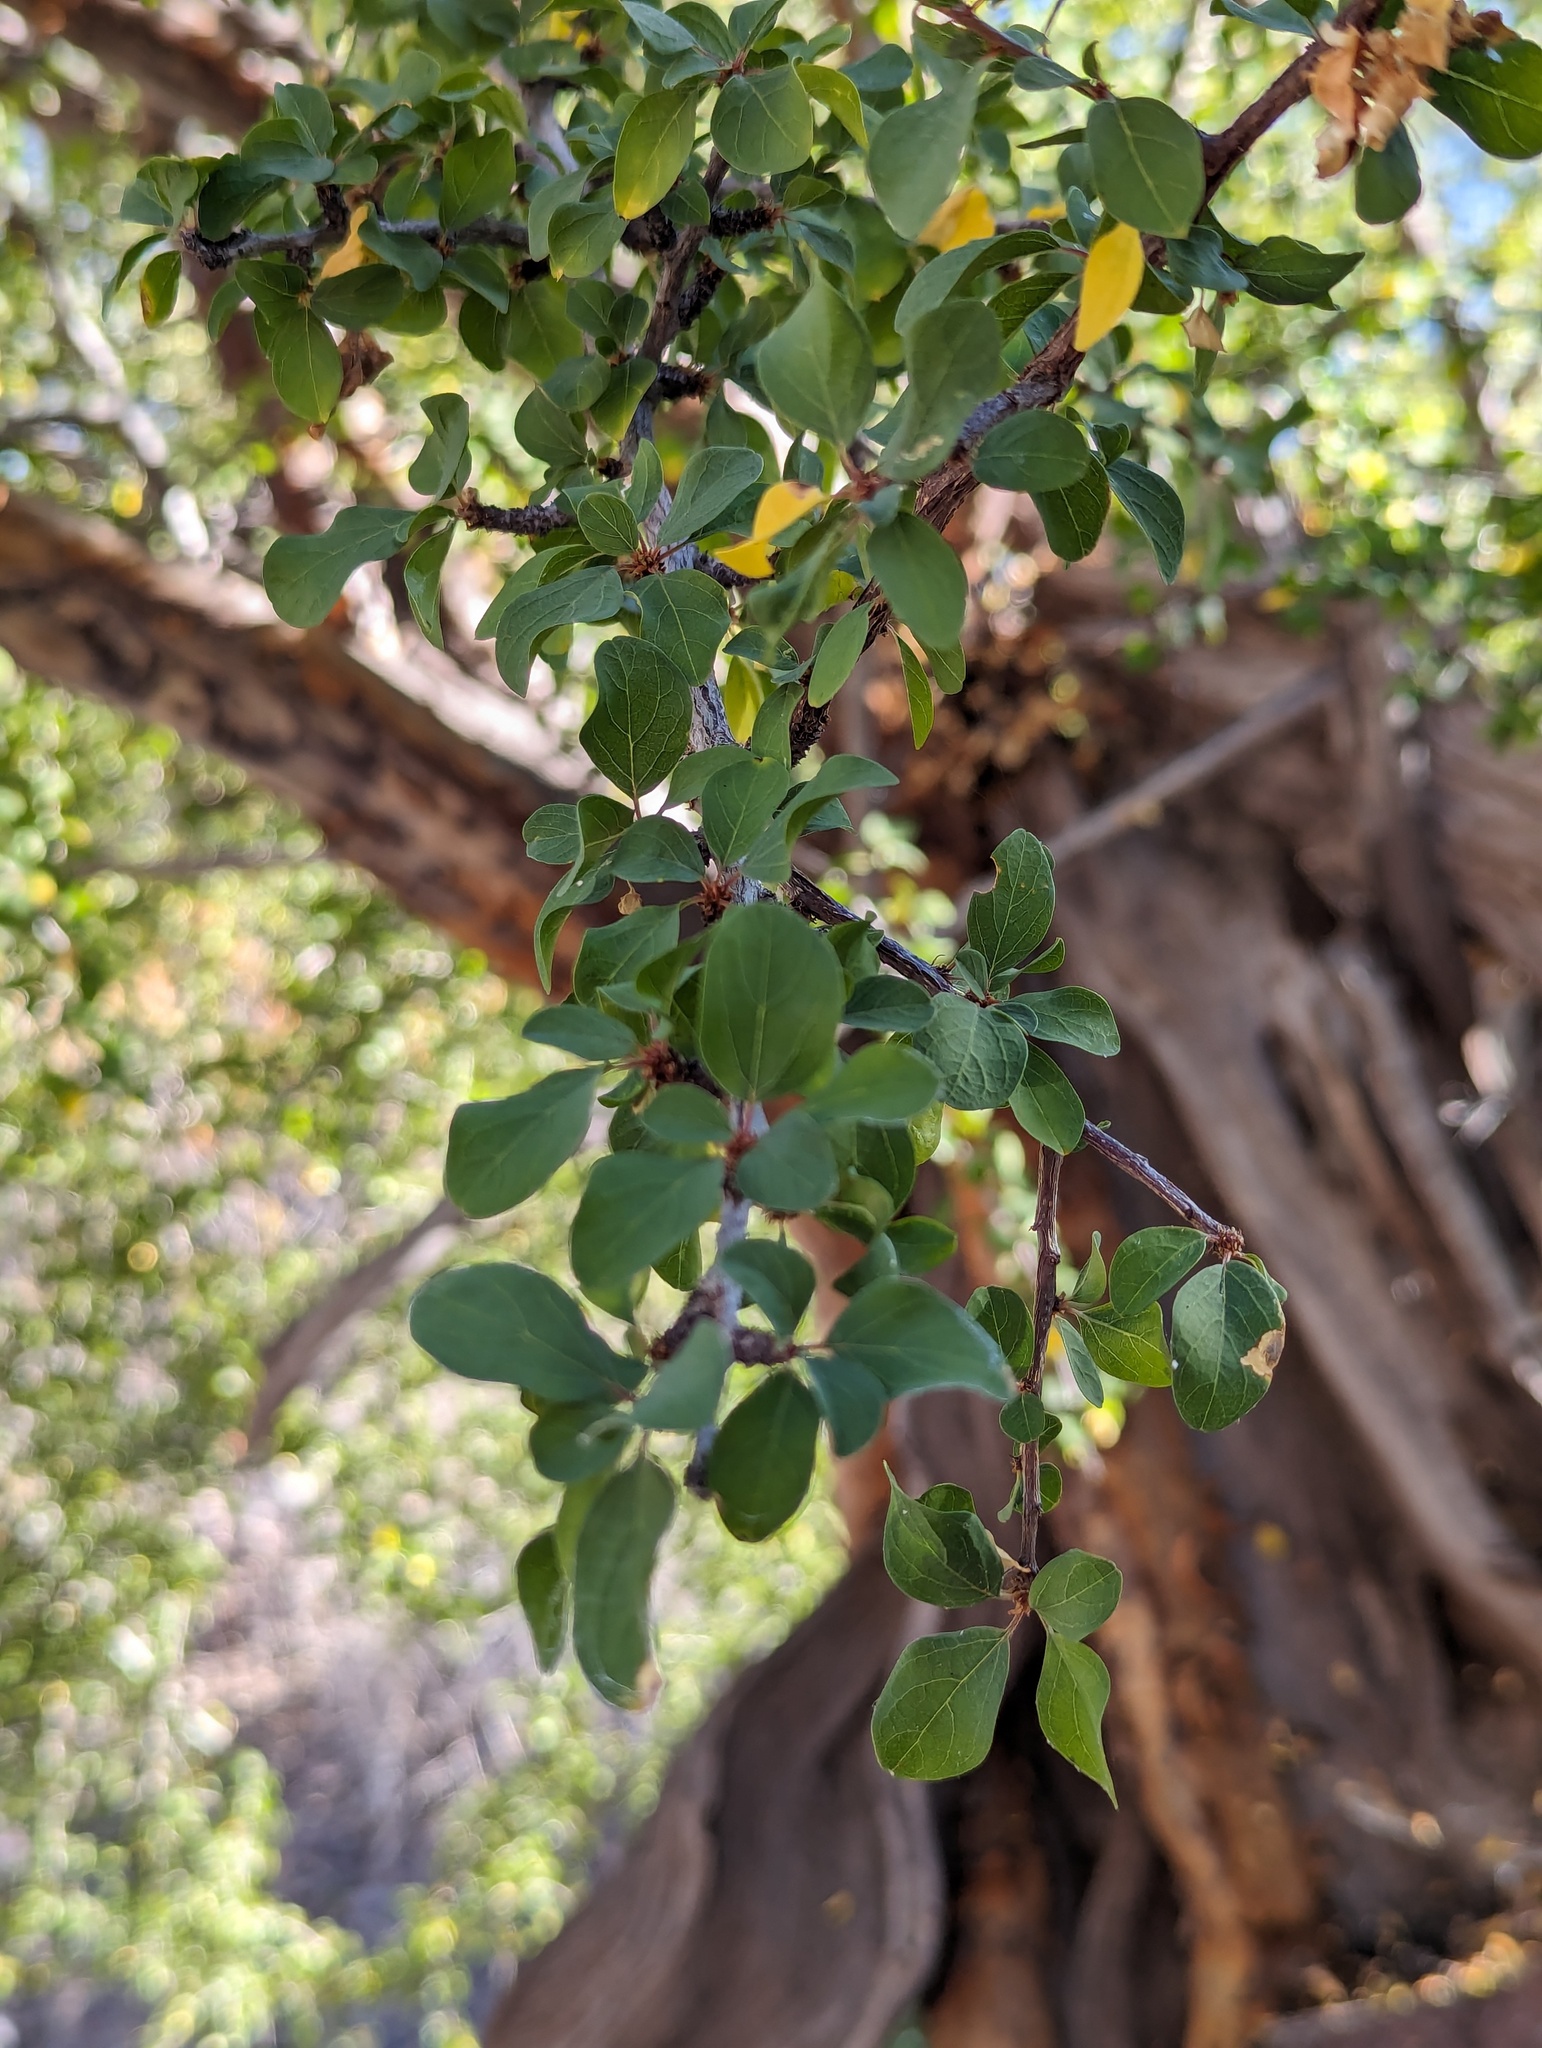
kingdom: Plantae
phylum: Tracheophyta
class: Magnoliopsida
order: Rosales
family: Rhamnaceae
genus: Colubrina
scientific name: Colubrina viridis
